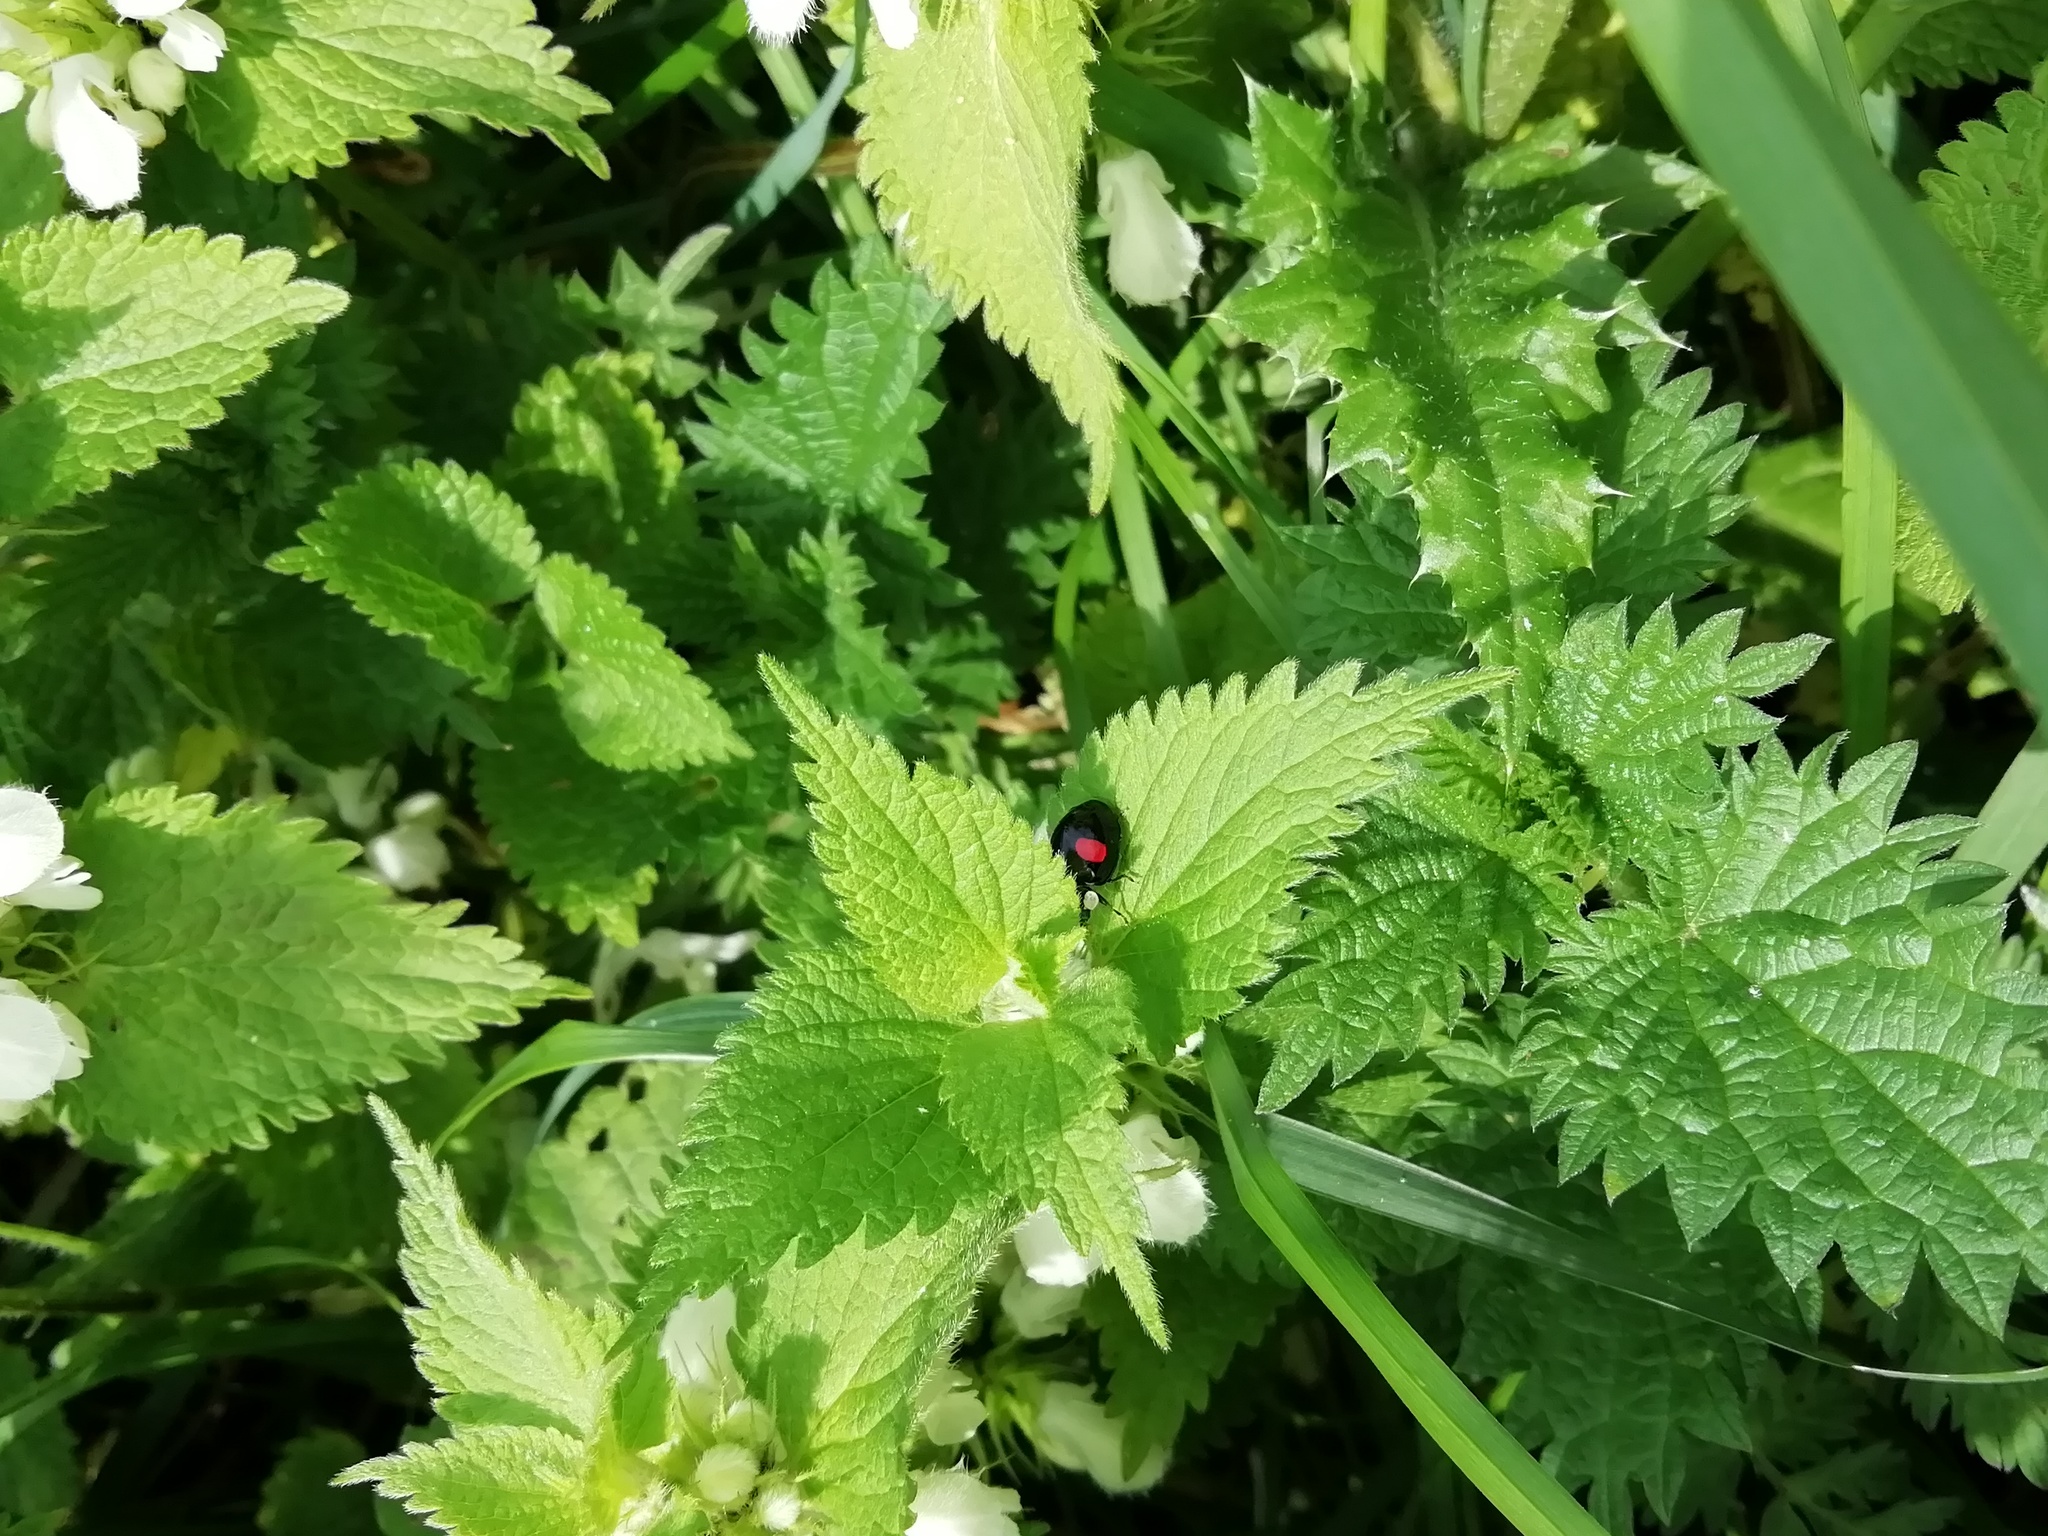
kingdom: Animalia
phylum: Arthropoda
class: Insecta
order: Coleoptera
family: Coccinellidae
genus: Harmonia
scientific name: Harmonia axyridis
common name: Harlequin ladybird
